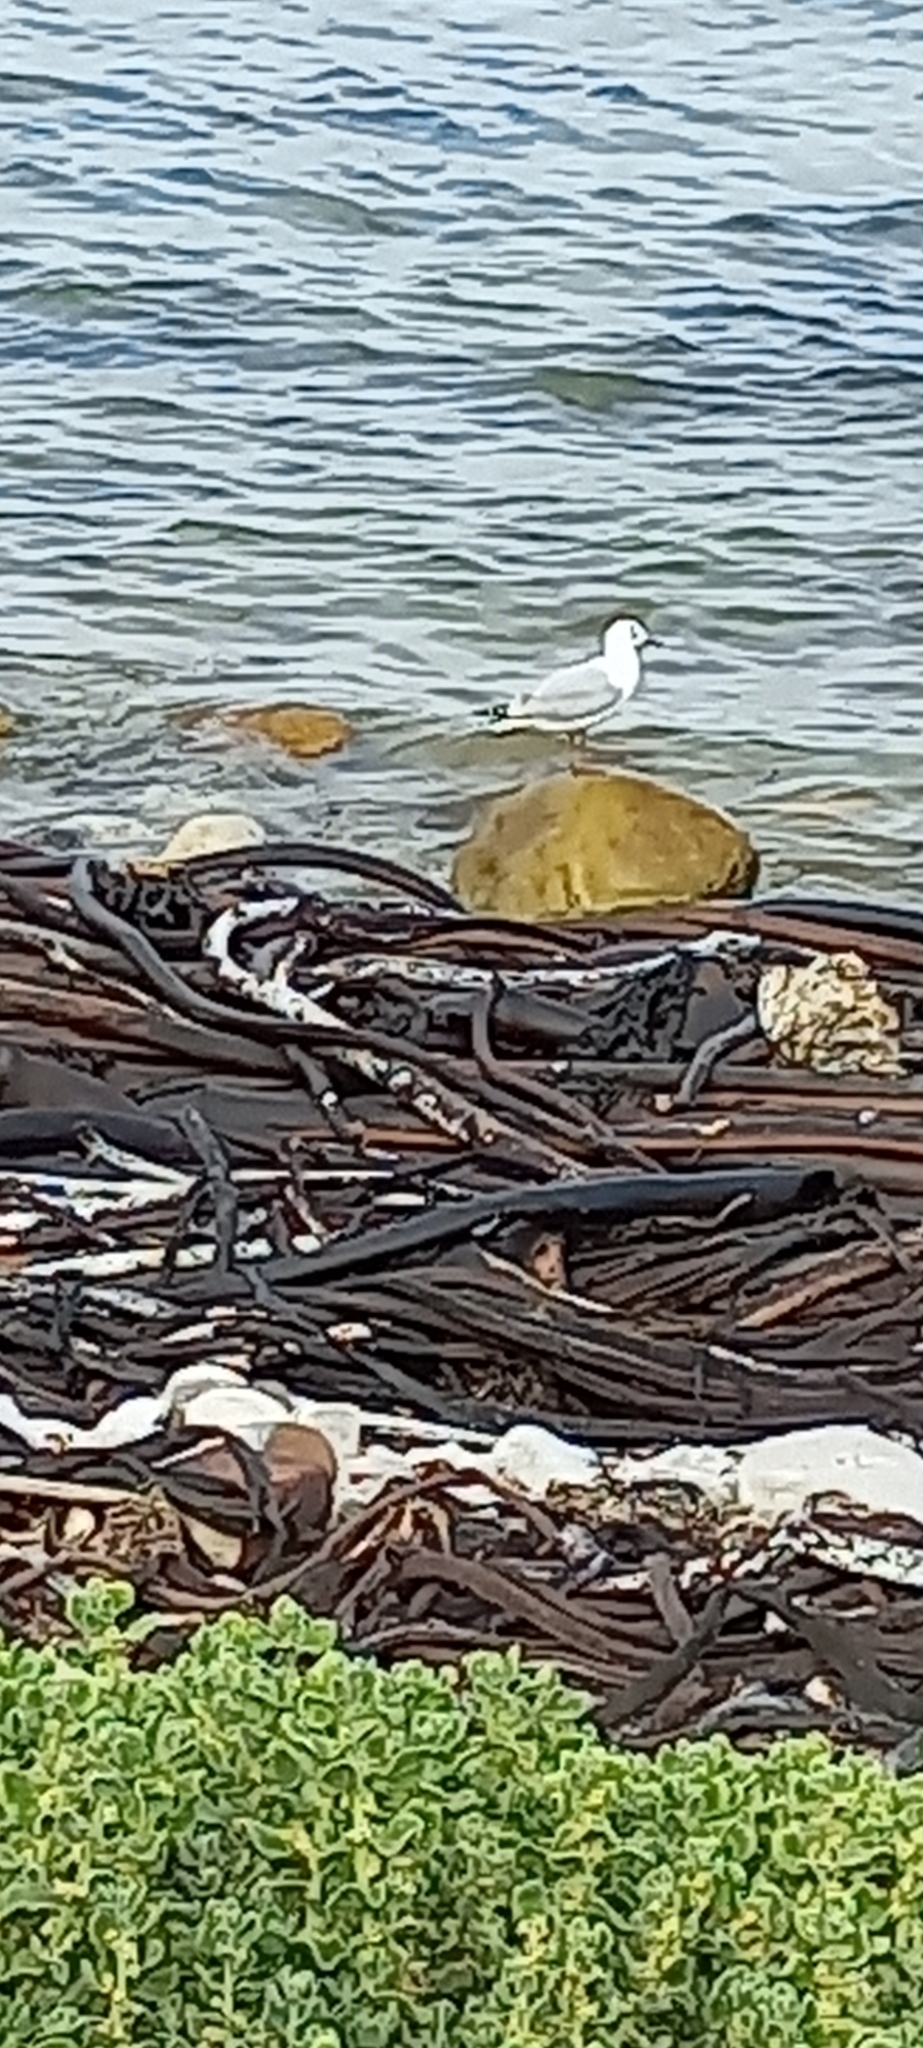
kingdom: Animalia
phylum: Chordata
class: Aves
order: Charadriiformes
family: Laridae
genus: Chroicocephalus
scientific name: Chroicocephalus hartlaubii
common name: Hartlaub's gull
